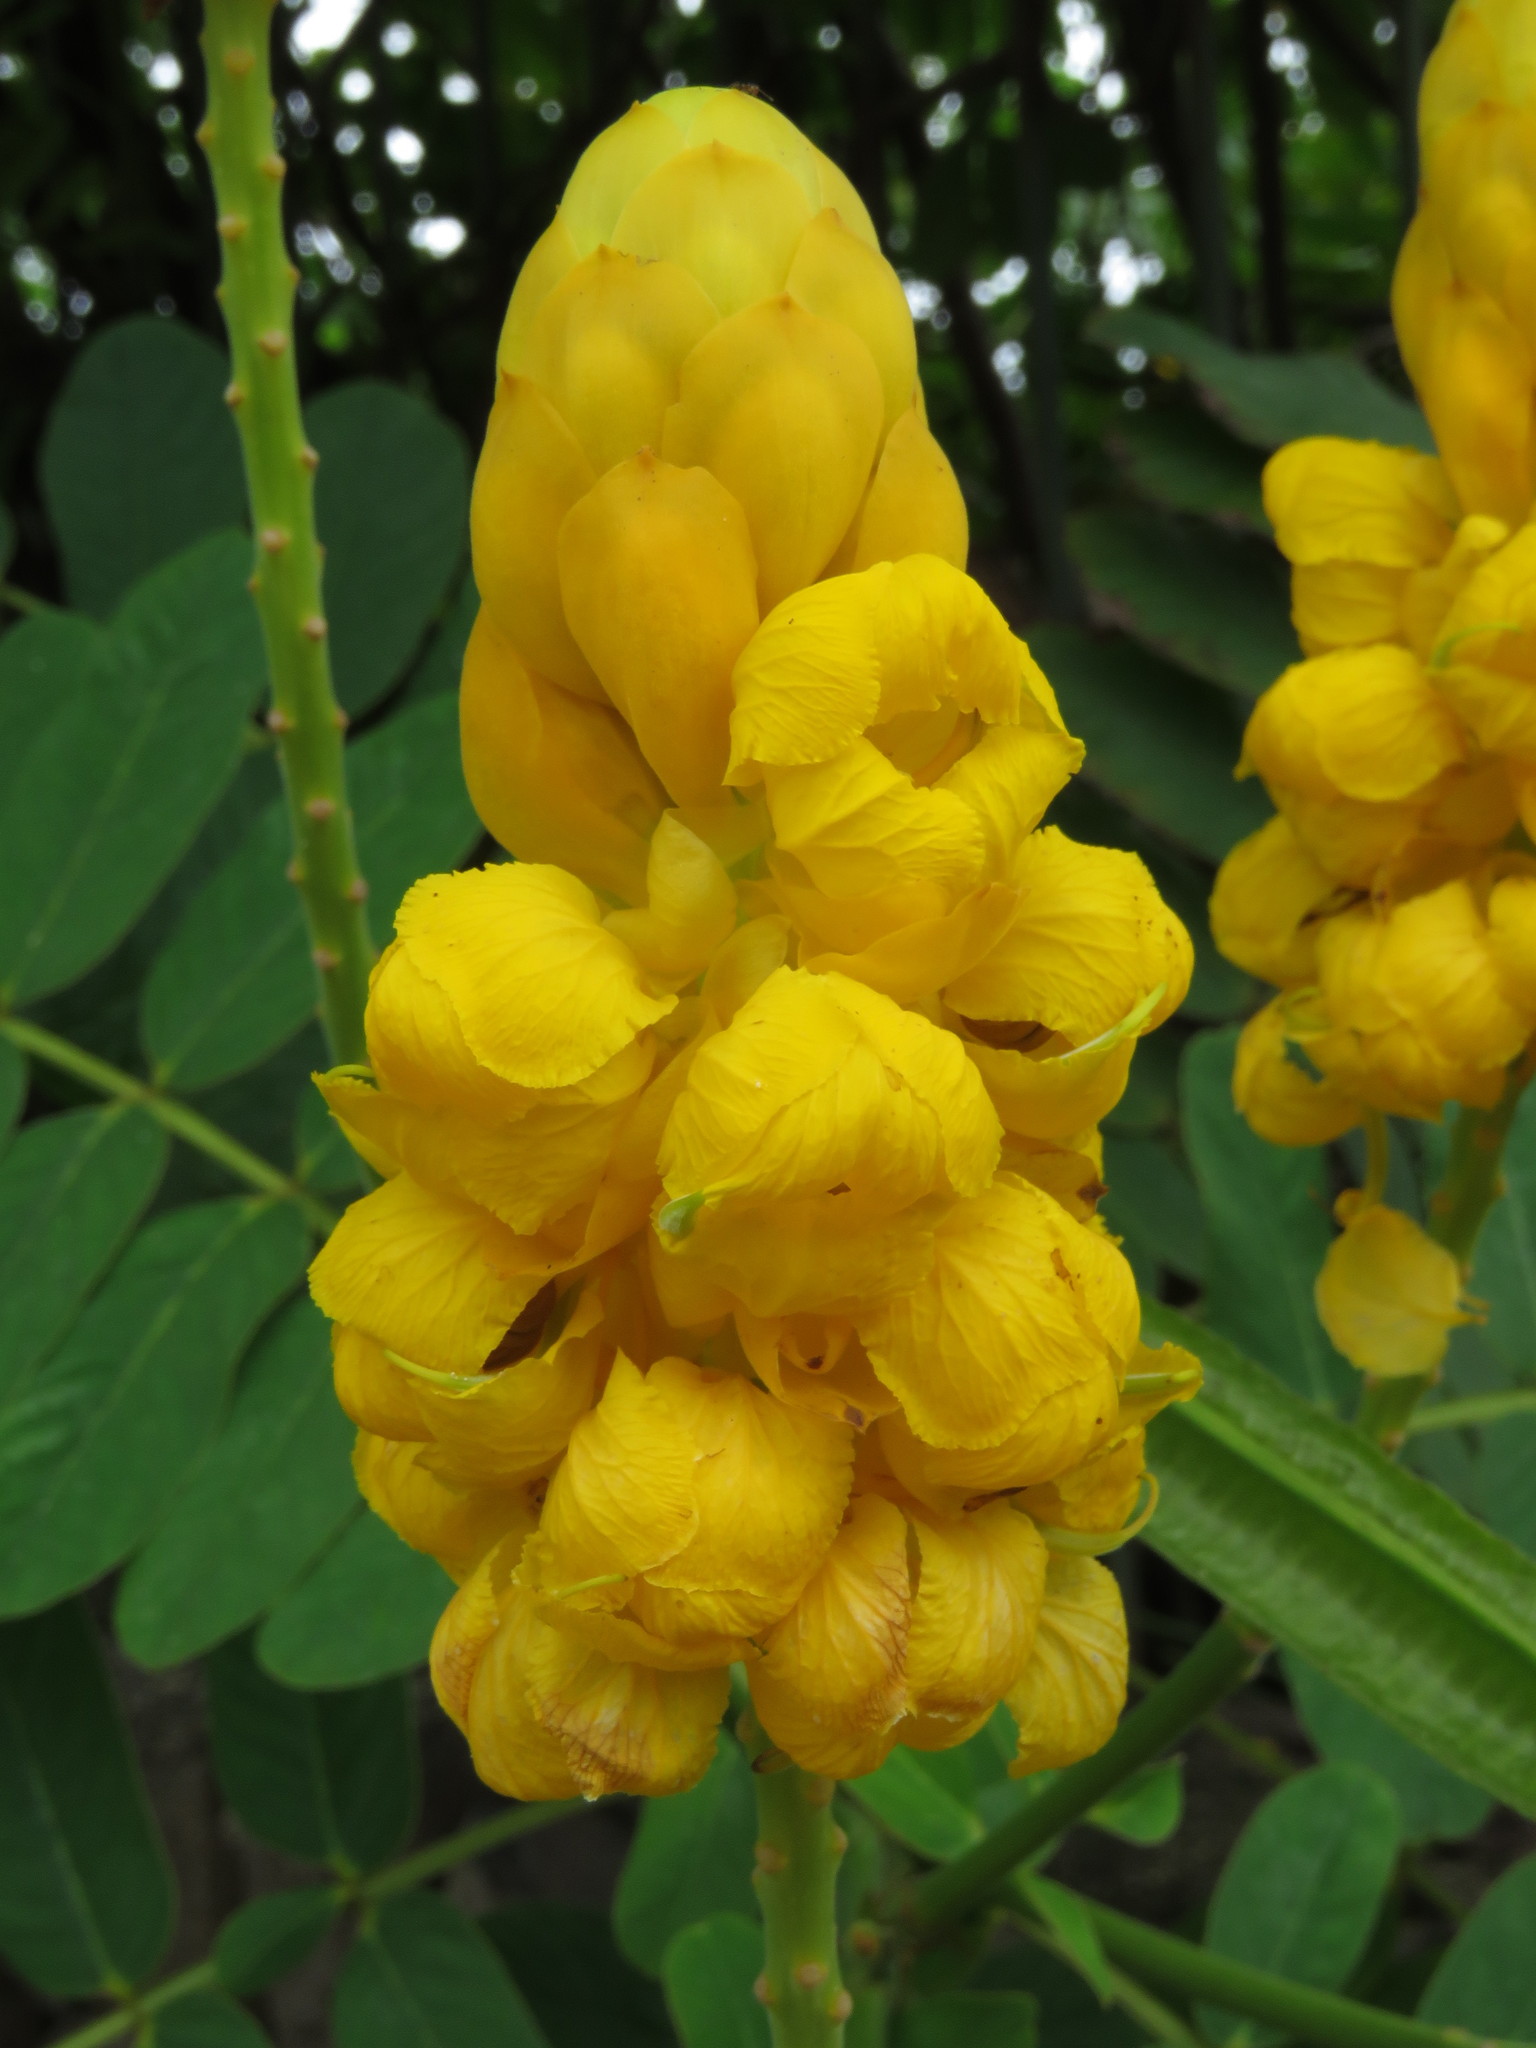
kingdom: Plantae
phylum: Tracheophyta
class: Magnoliopsida
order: Fabales
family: Fabaceae
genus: Senna
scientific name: Senna alata
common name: Emperor's candlesticks
